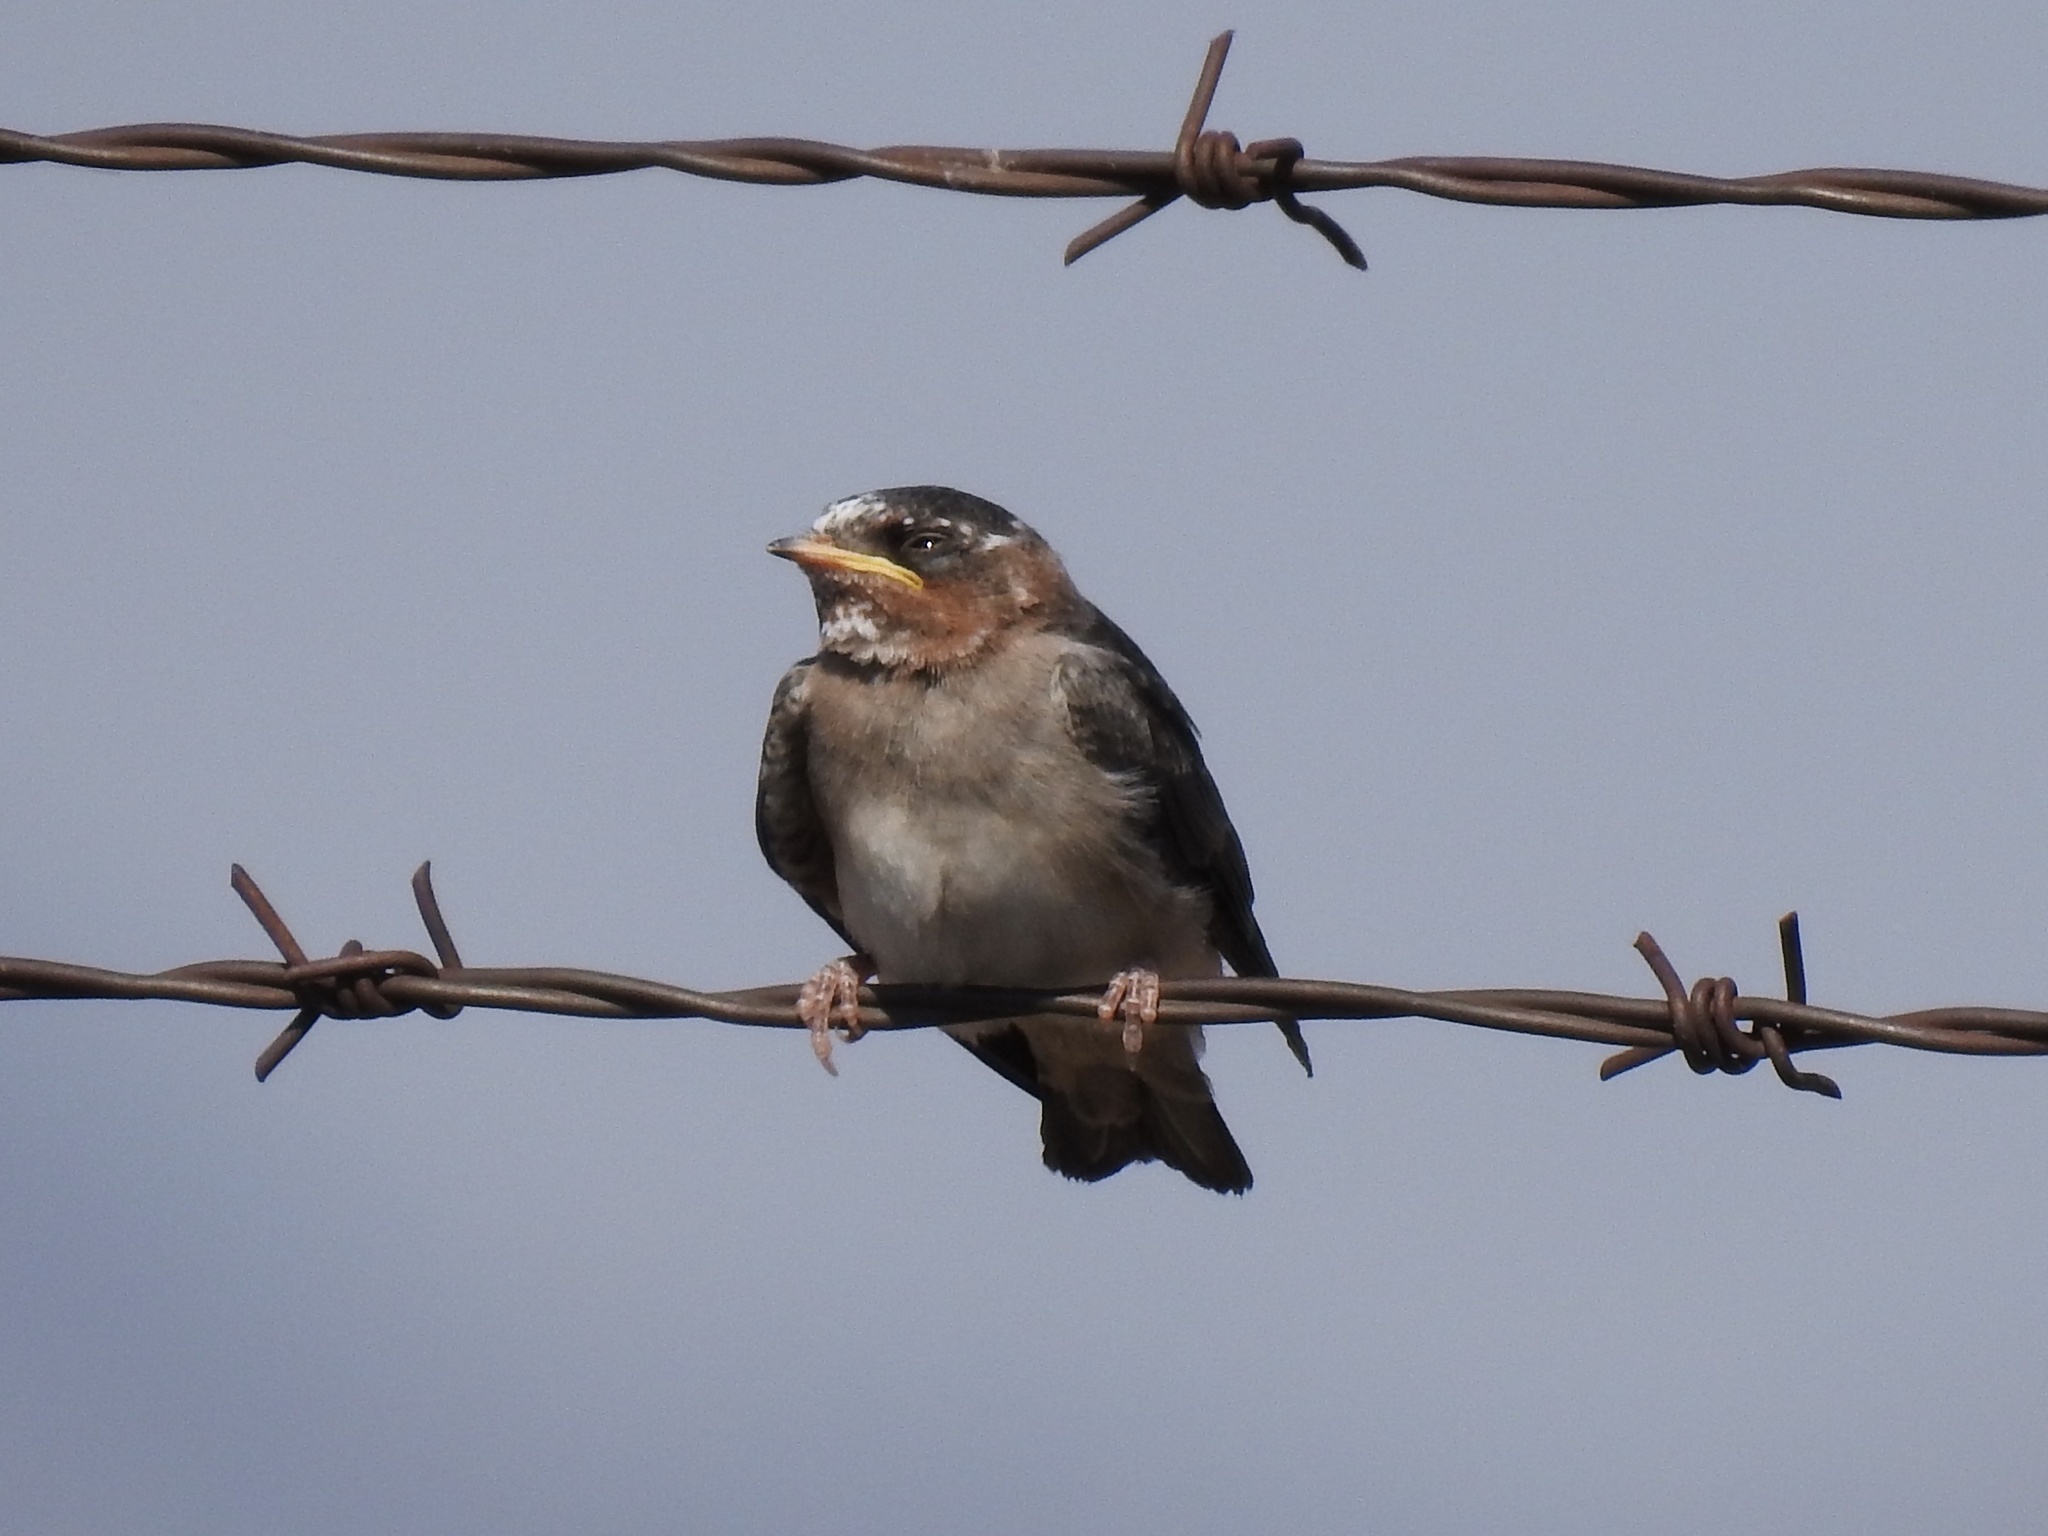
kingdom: Animalia
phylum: Chordata
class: Aves
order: Passeriformes
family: Hirundinidae
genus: Petrochelidon
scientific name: Petrochelidon pyrrhonota
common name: American cliff swallow
